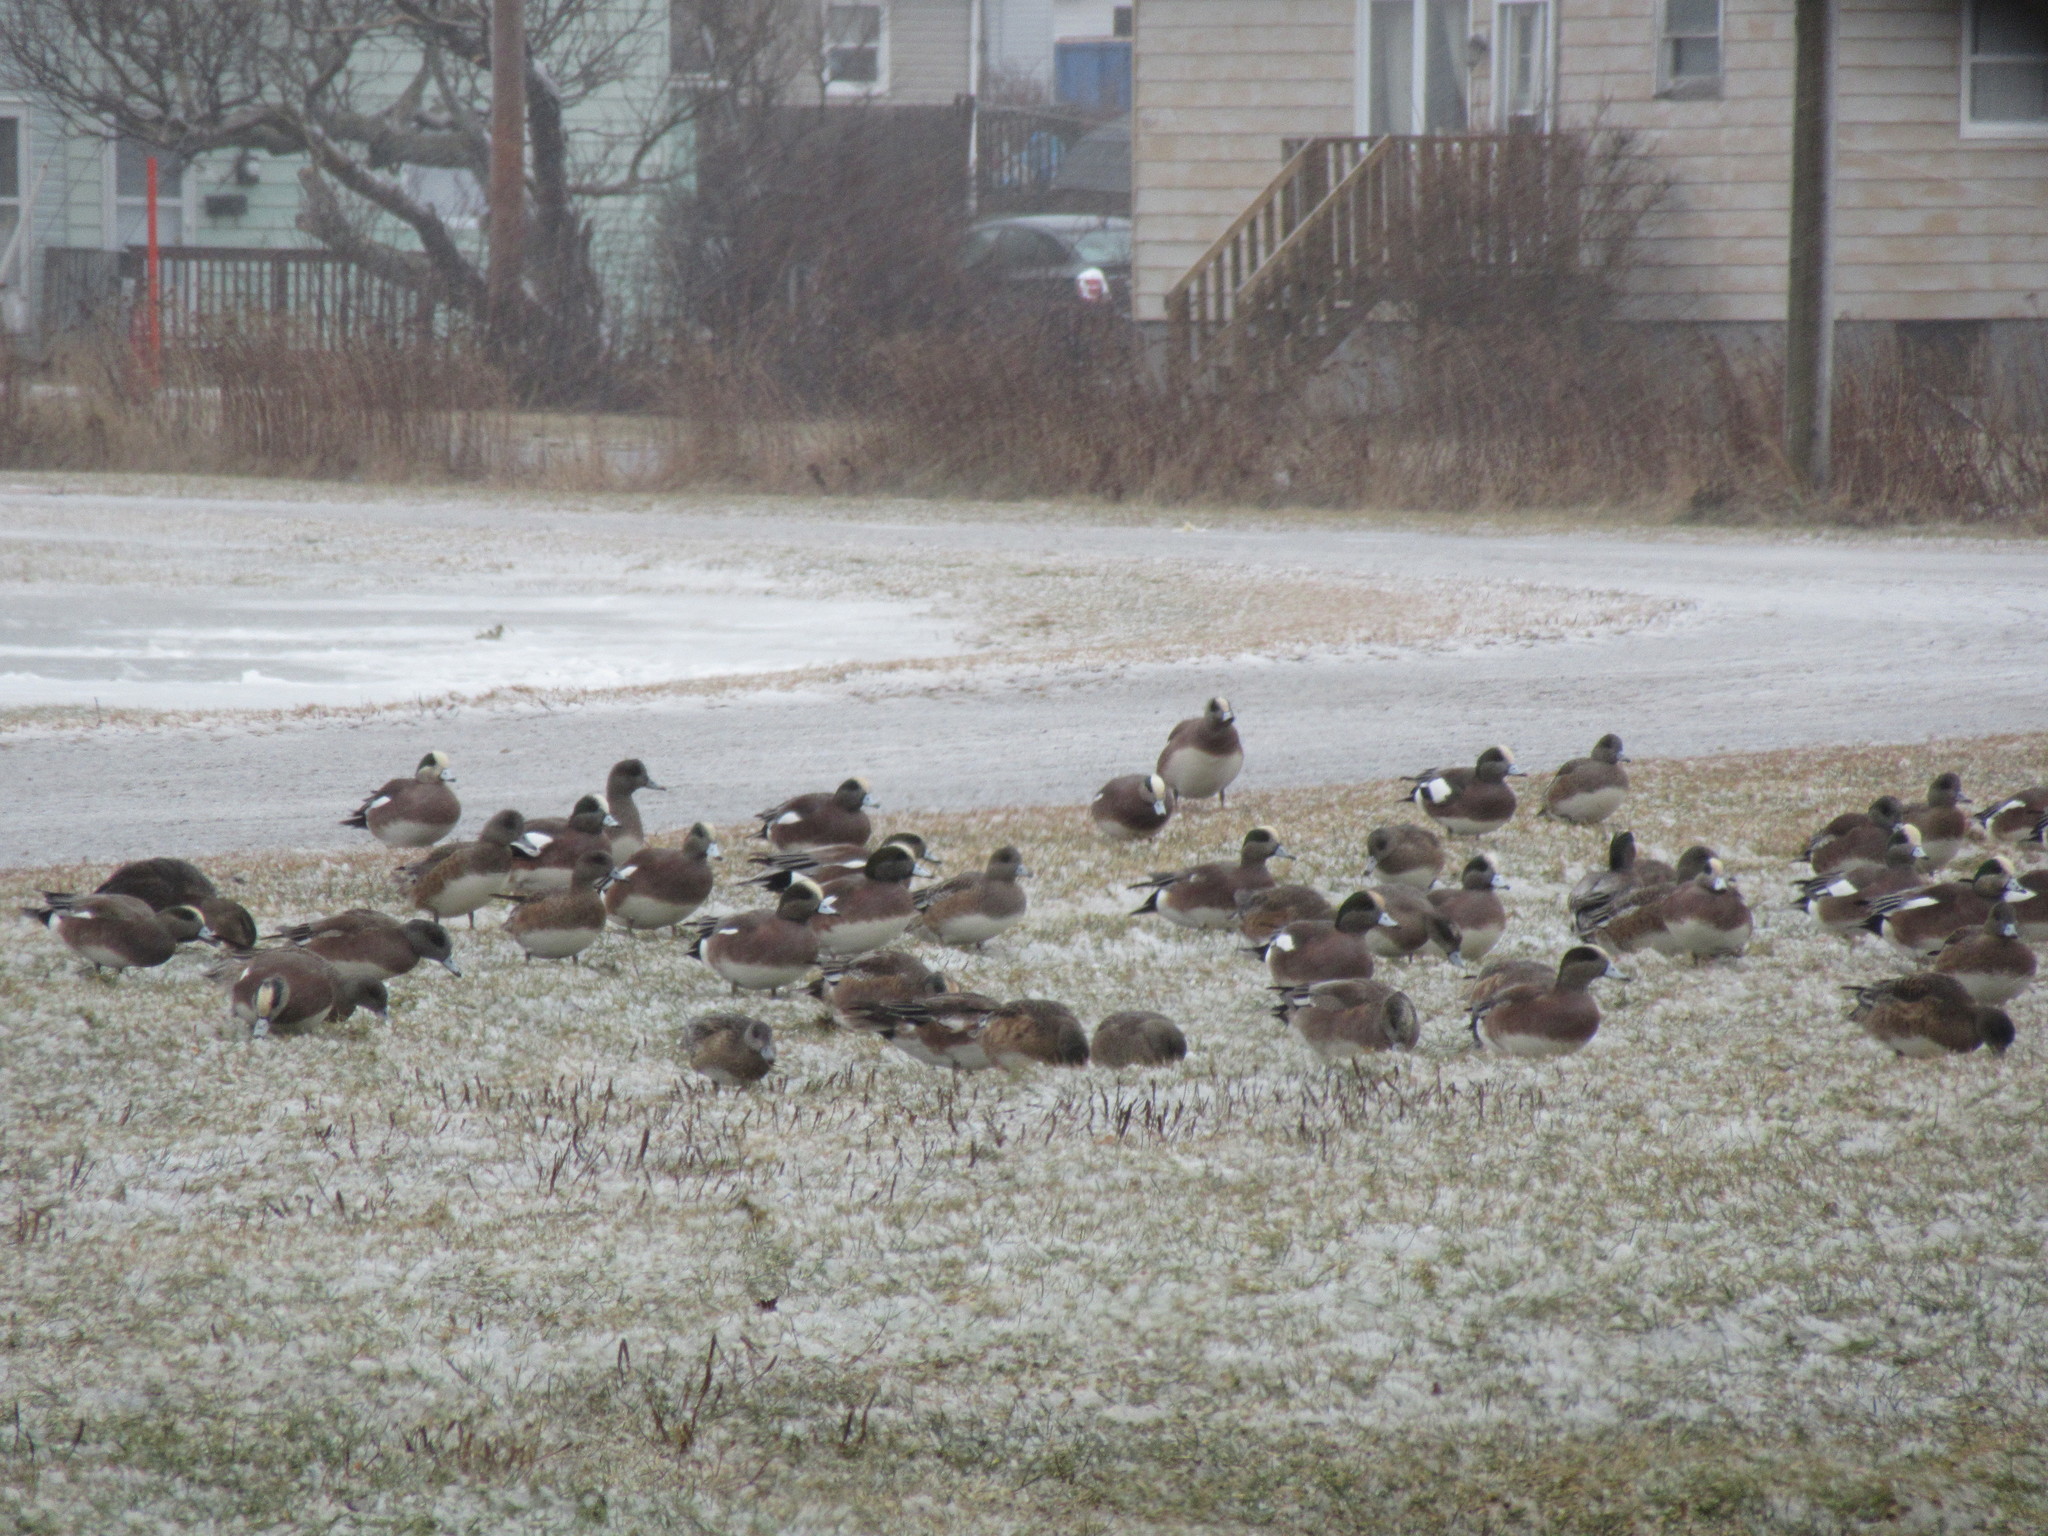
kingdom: Animalia
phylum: Chordata
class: Aves
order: Anseriformes
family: Anatidae
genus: Mareca
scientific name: Mareca americana
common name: American wigeon
